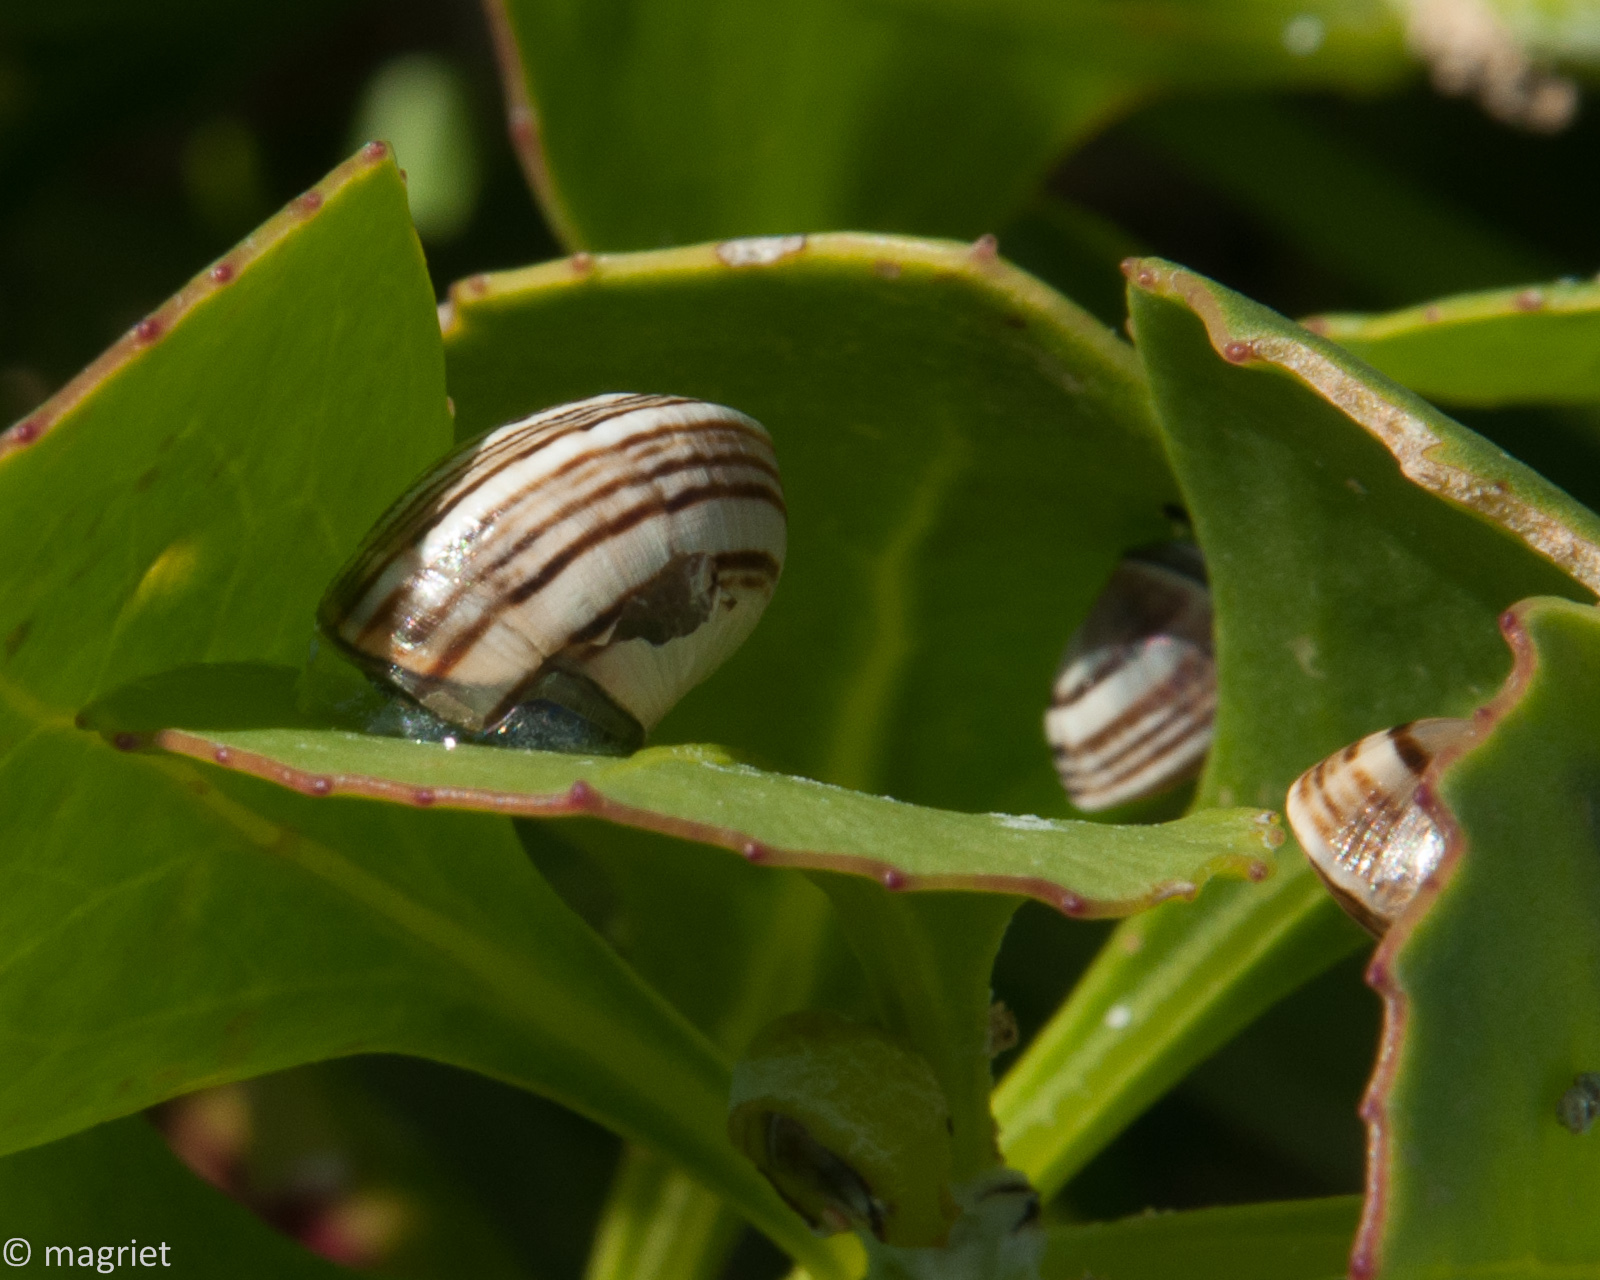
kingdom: Animalia
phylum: Mollusca
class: Gastropoda
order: Stylommatophora
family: Helicidae
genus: Theba
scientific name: Theba pisana
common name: White snail
